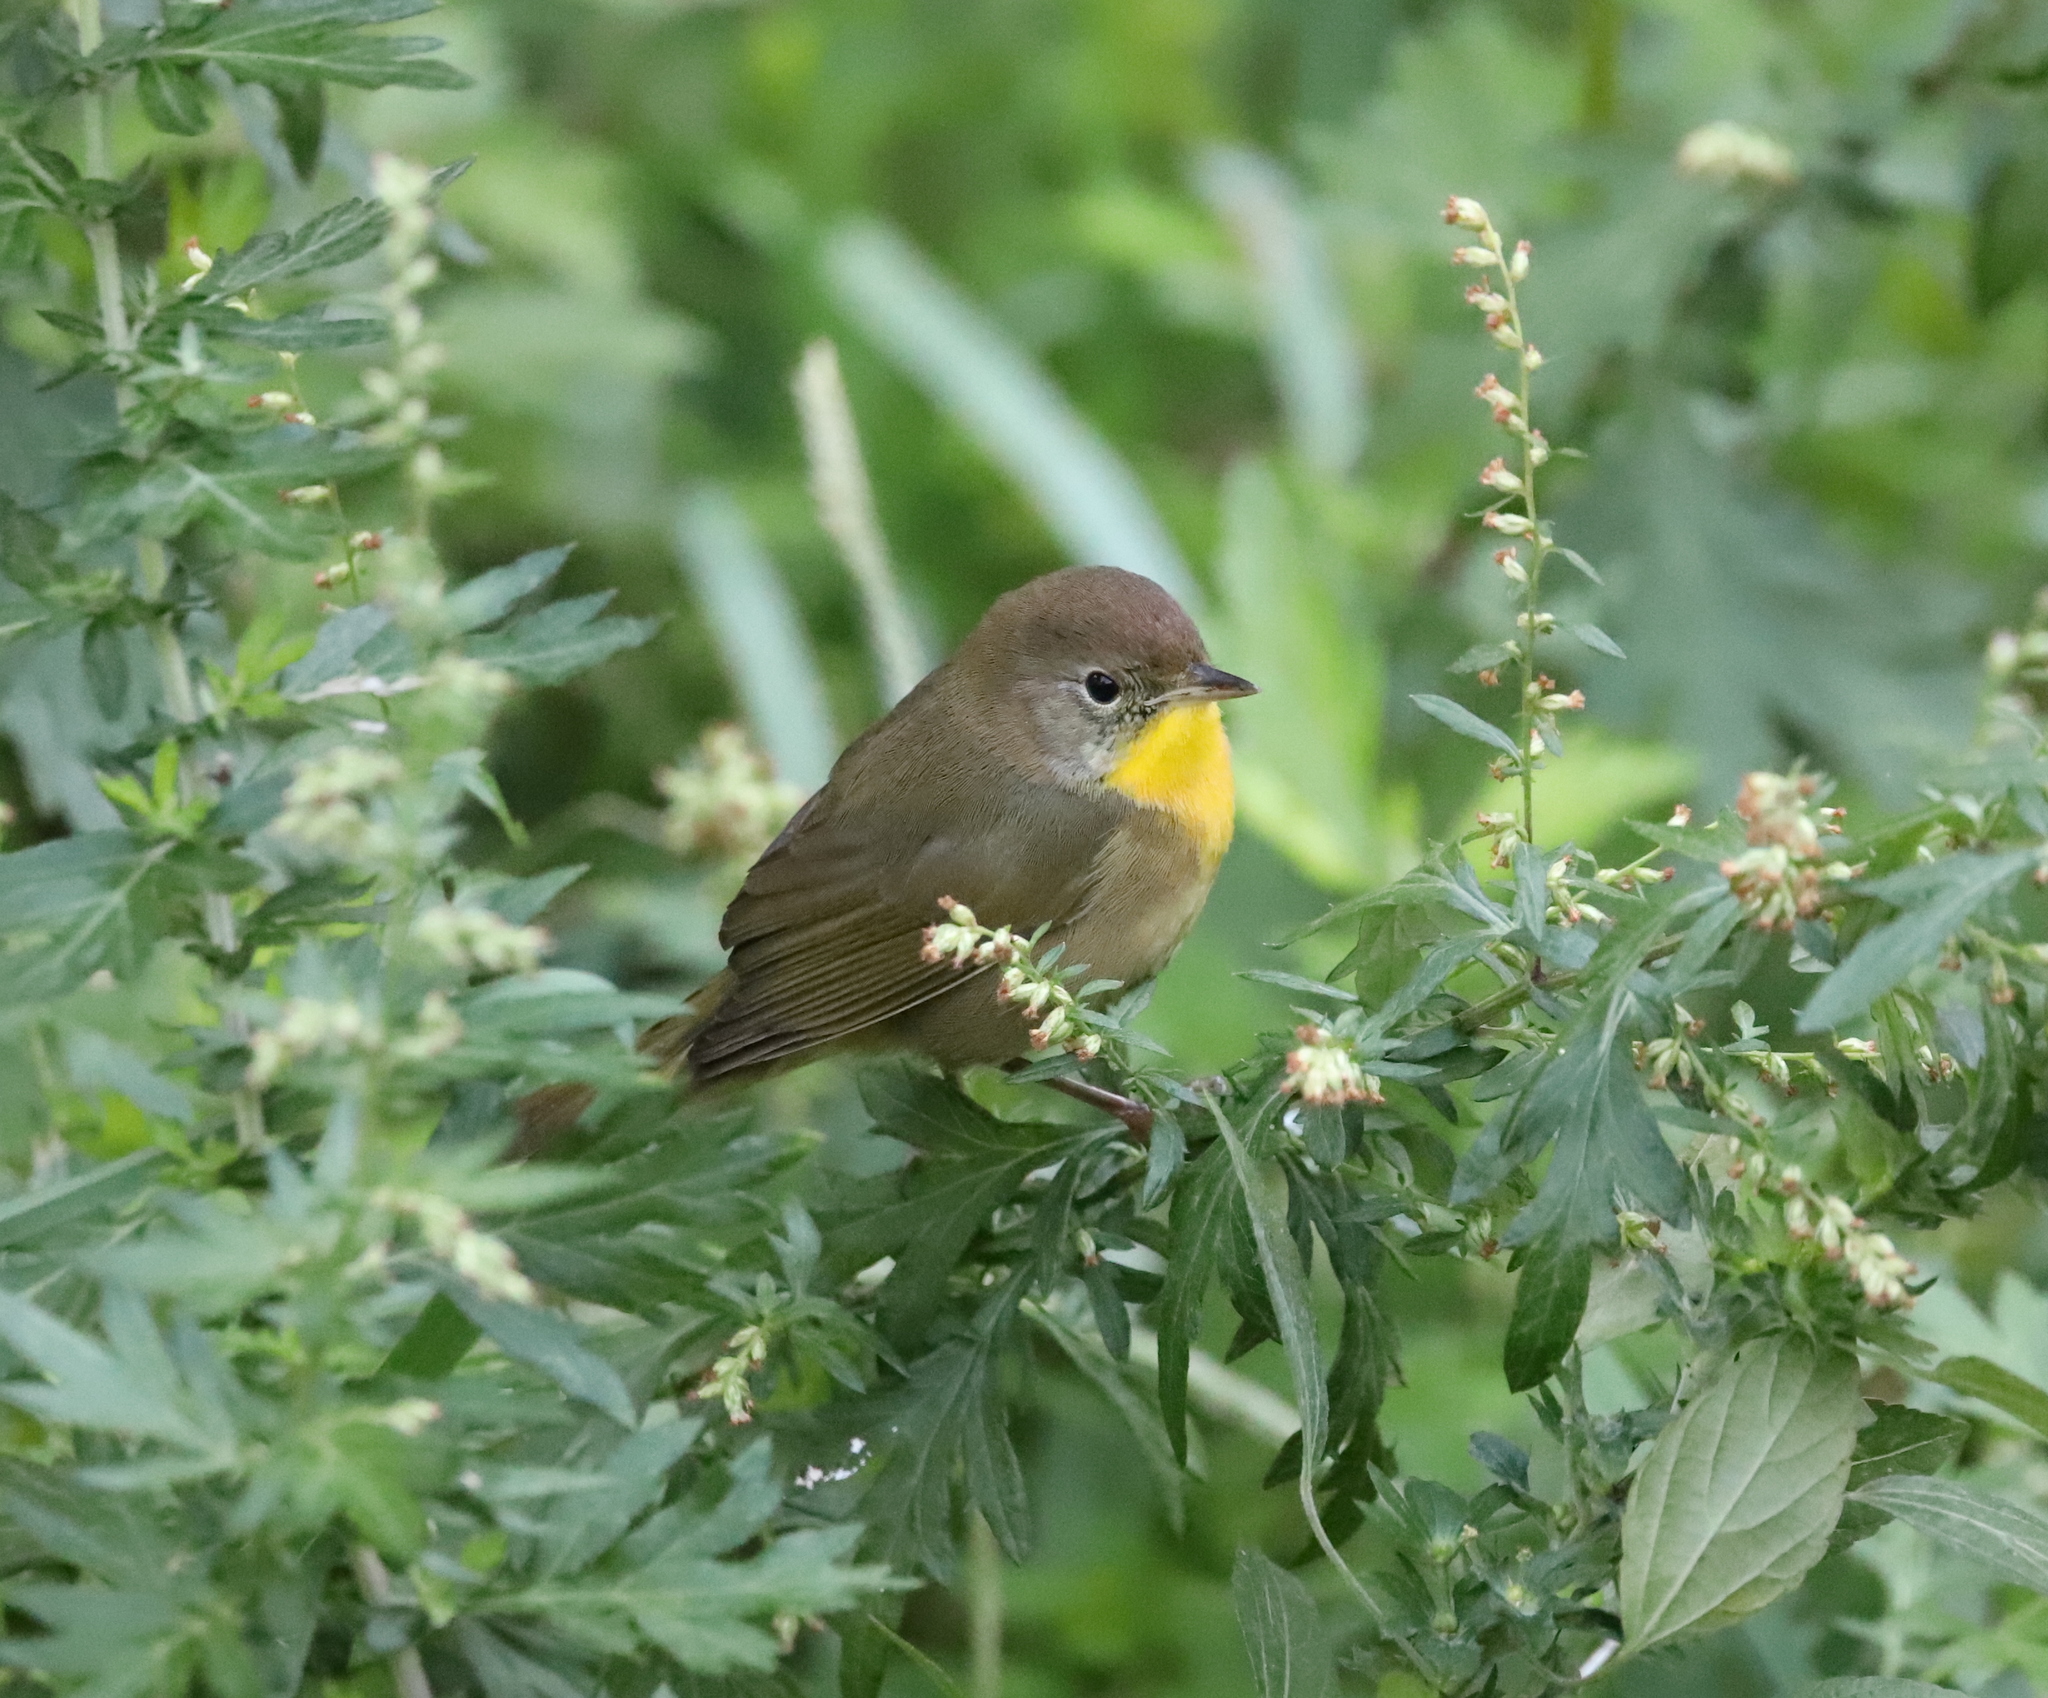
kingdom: Animalia
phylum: Chordata
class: Aves
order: Passeriformes
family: Parulidae
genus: Geothlypis
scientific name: Geothlypis trichas
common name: Common yellowthroat
